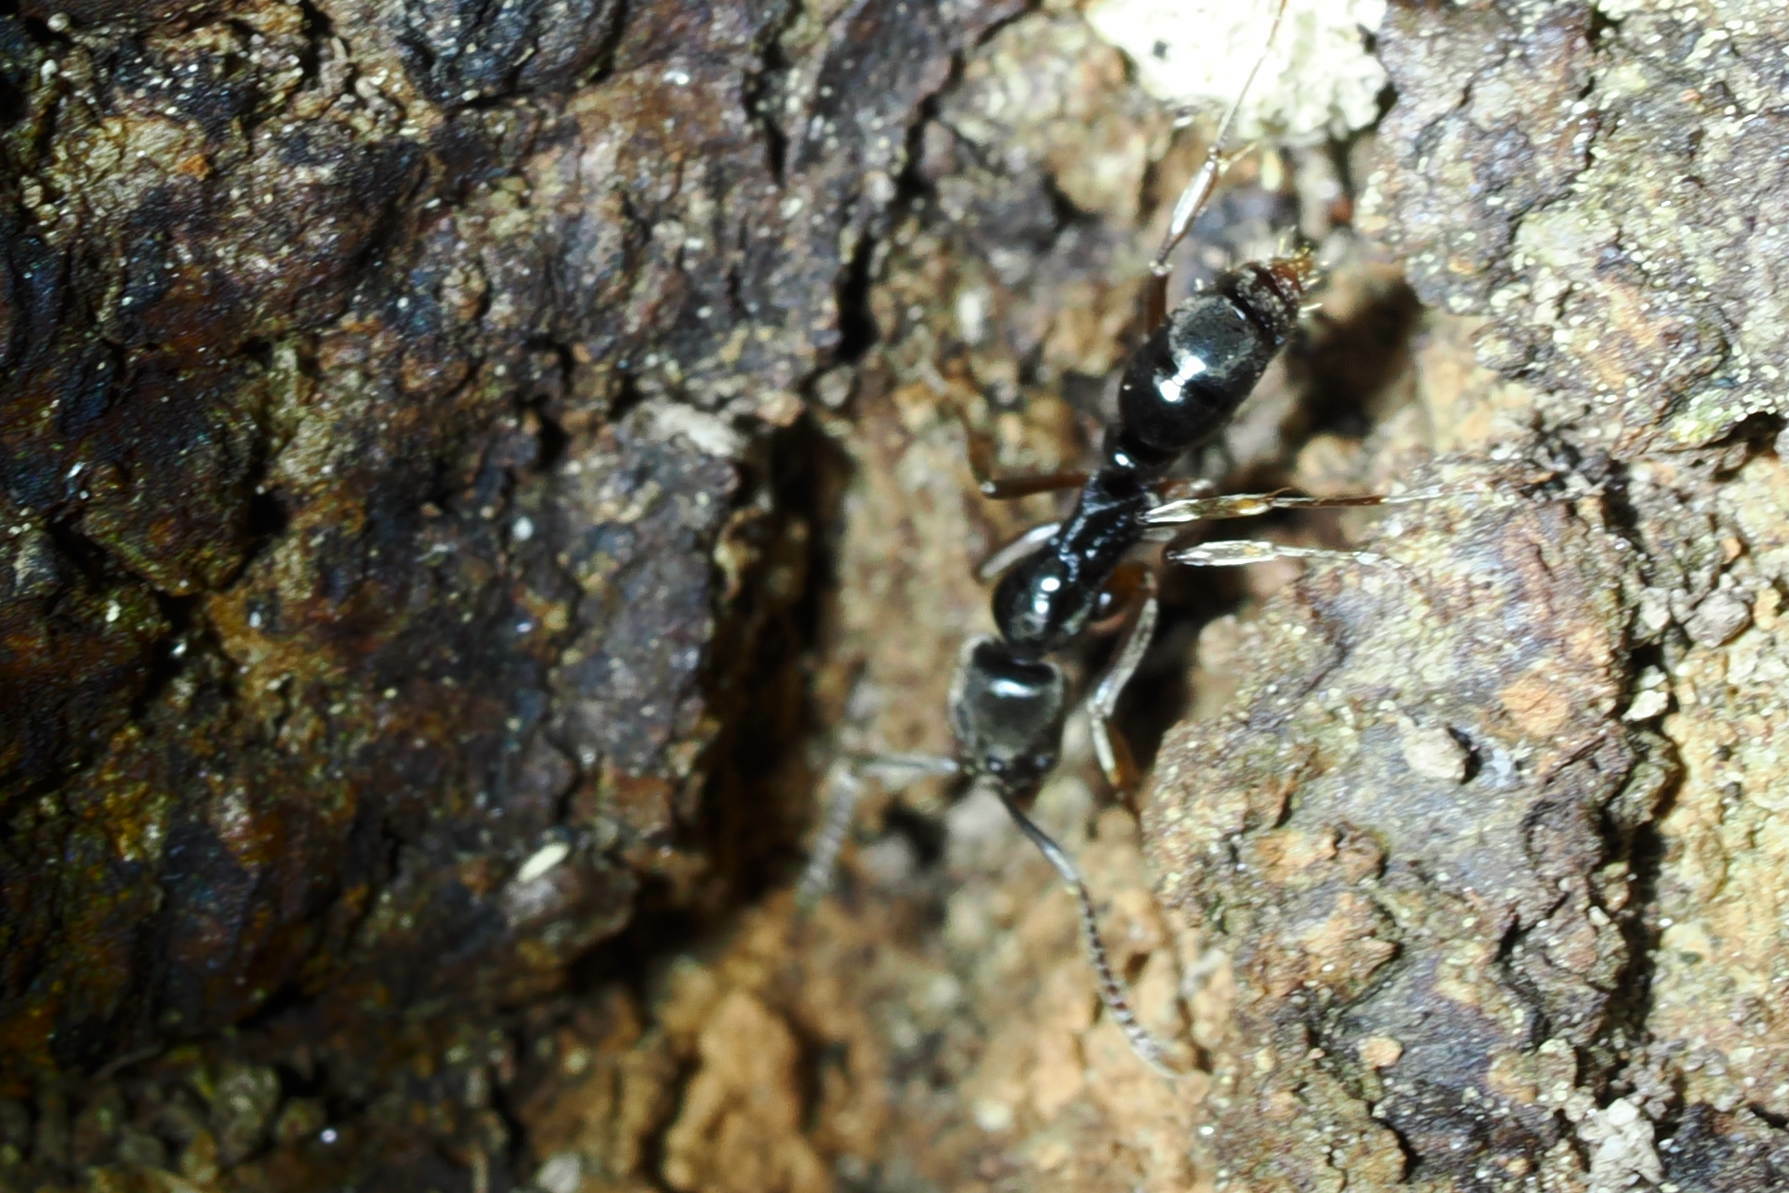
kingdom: Animalia
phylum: Arthropoda
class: Insecta
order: Hymenoptera
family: Formicidae
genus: Pachycondyla
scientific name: Pachycondyla chinensis
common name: Asian needle ant
